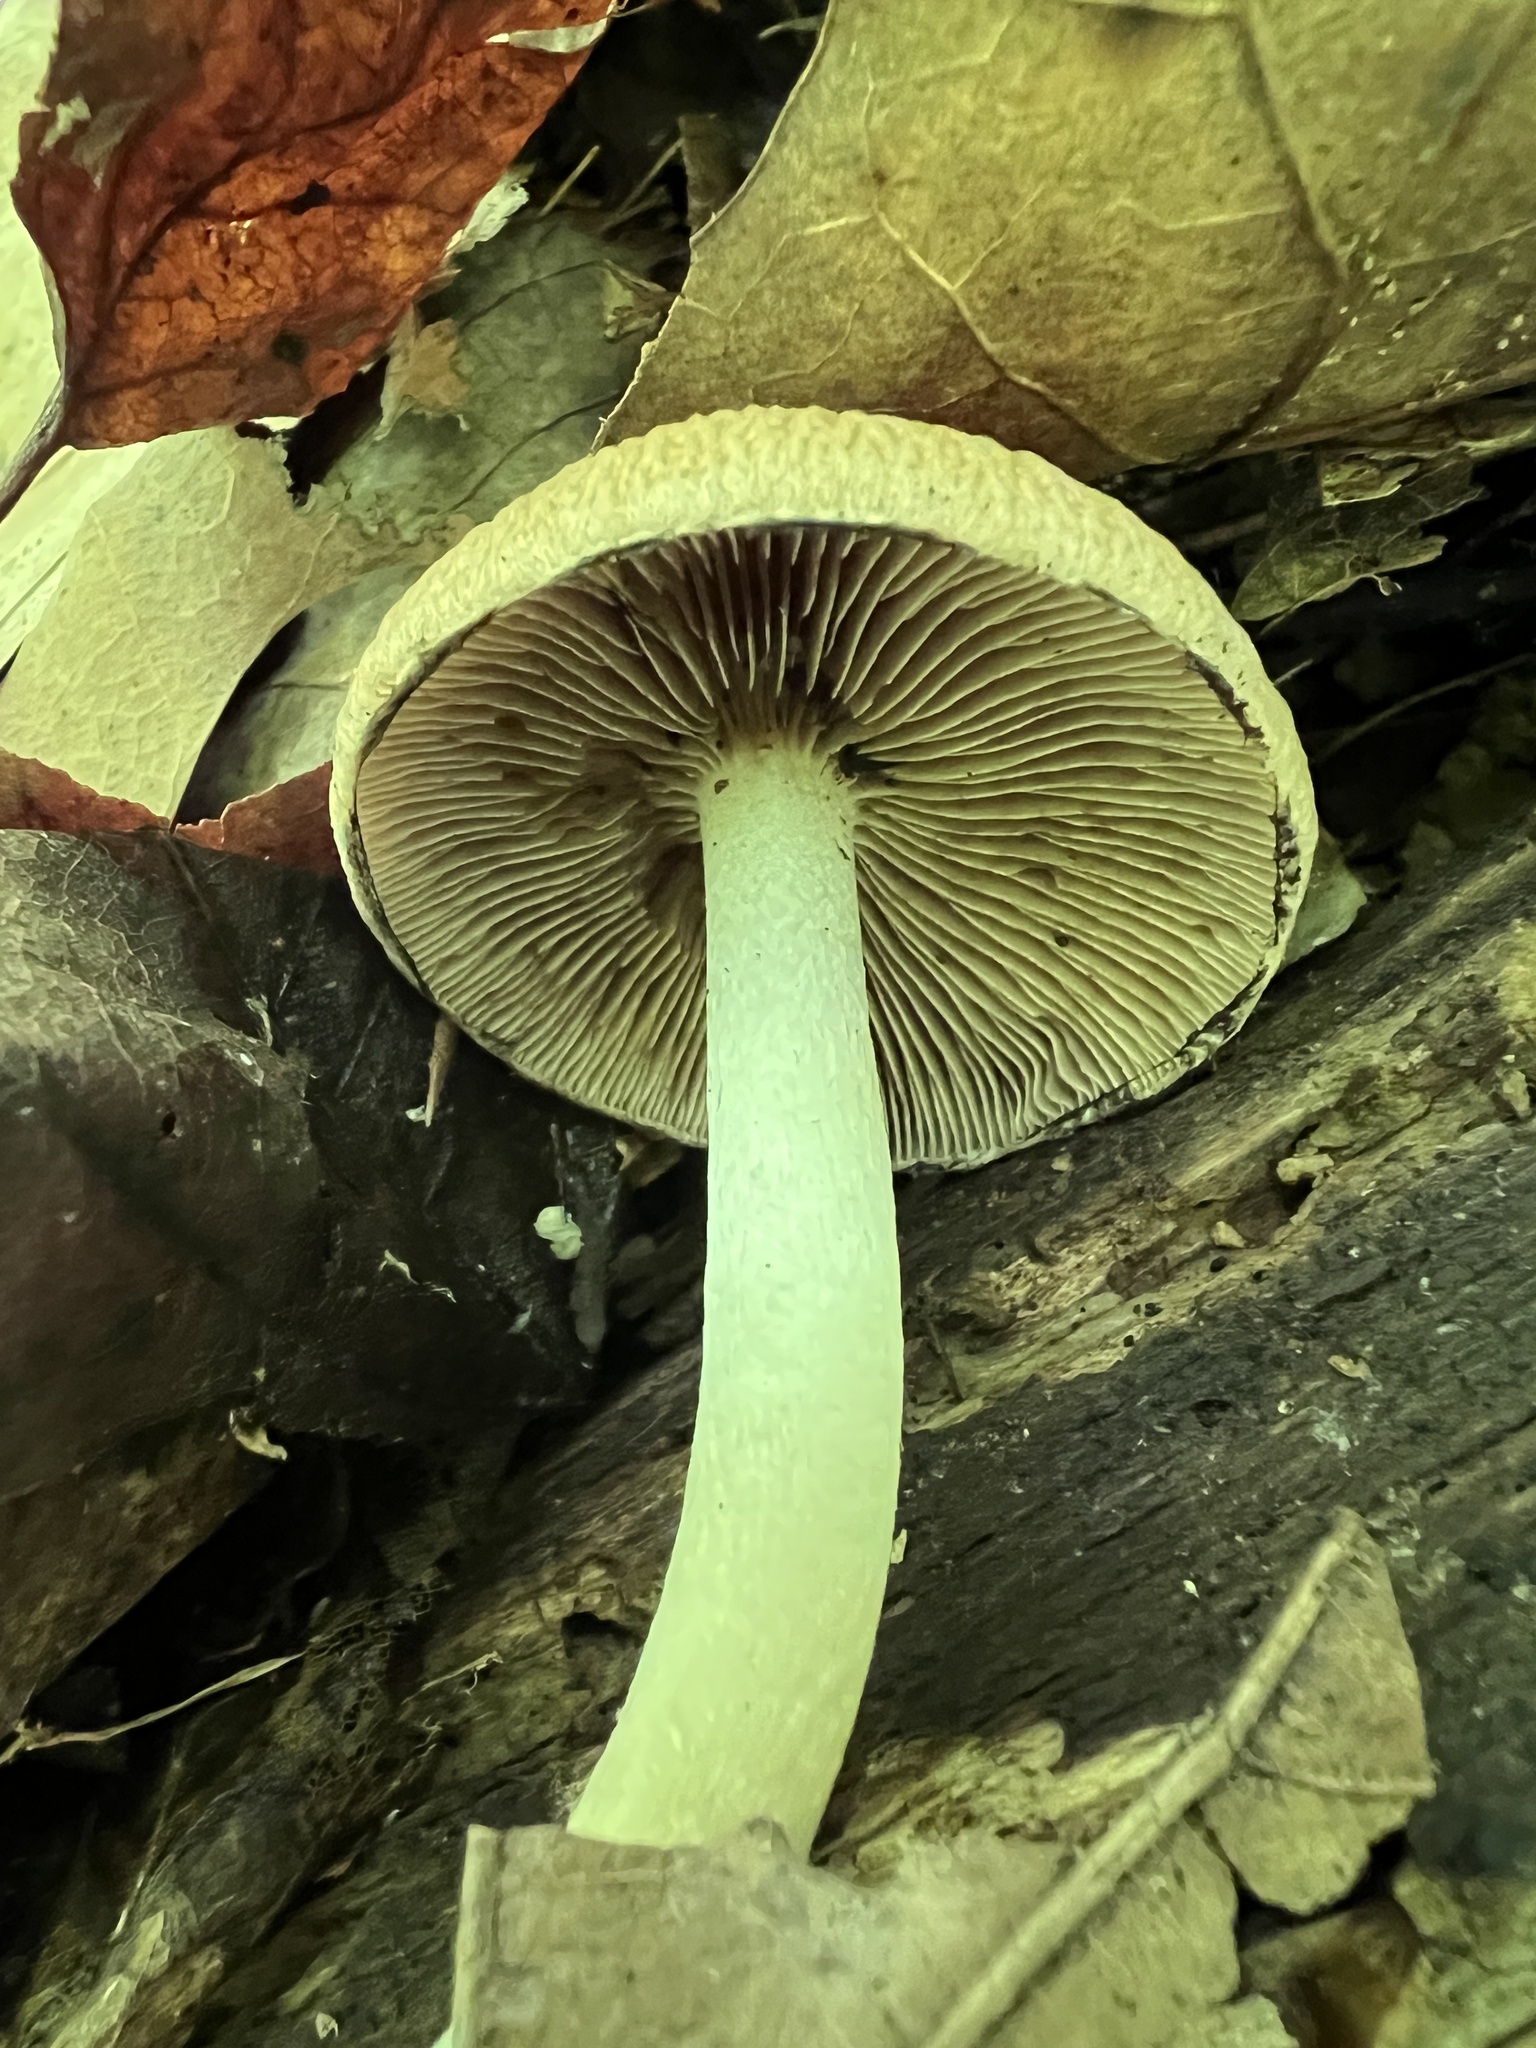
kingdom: Fungi
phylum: Basidiomycota
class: Agaricomycetes
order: Agaricales
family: Psathyrellaceae
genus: Typhrasa
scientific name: Typhrasa gossypina
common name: Wrinkled psathyrella
